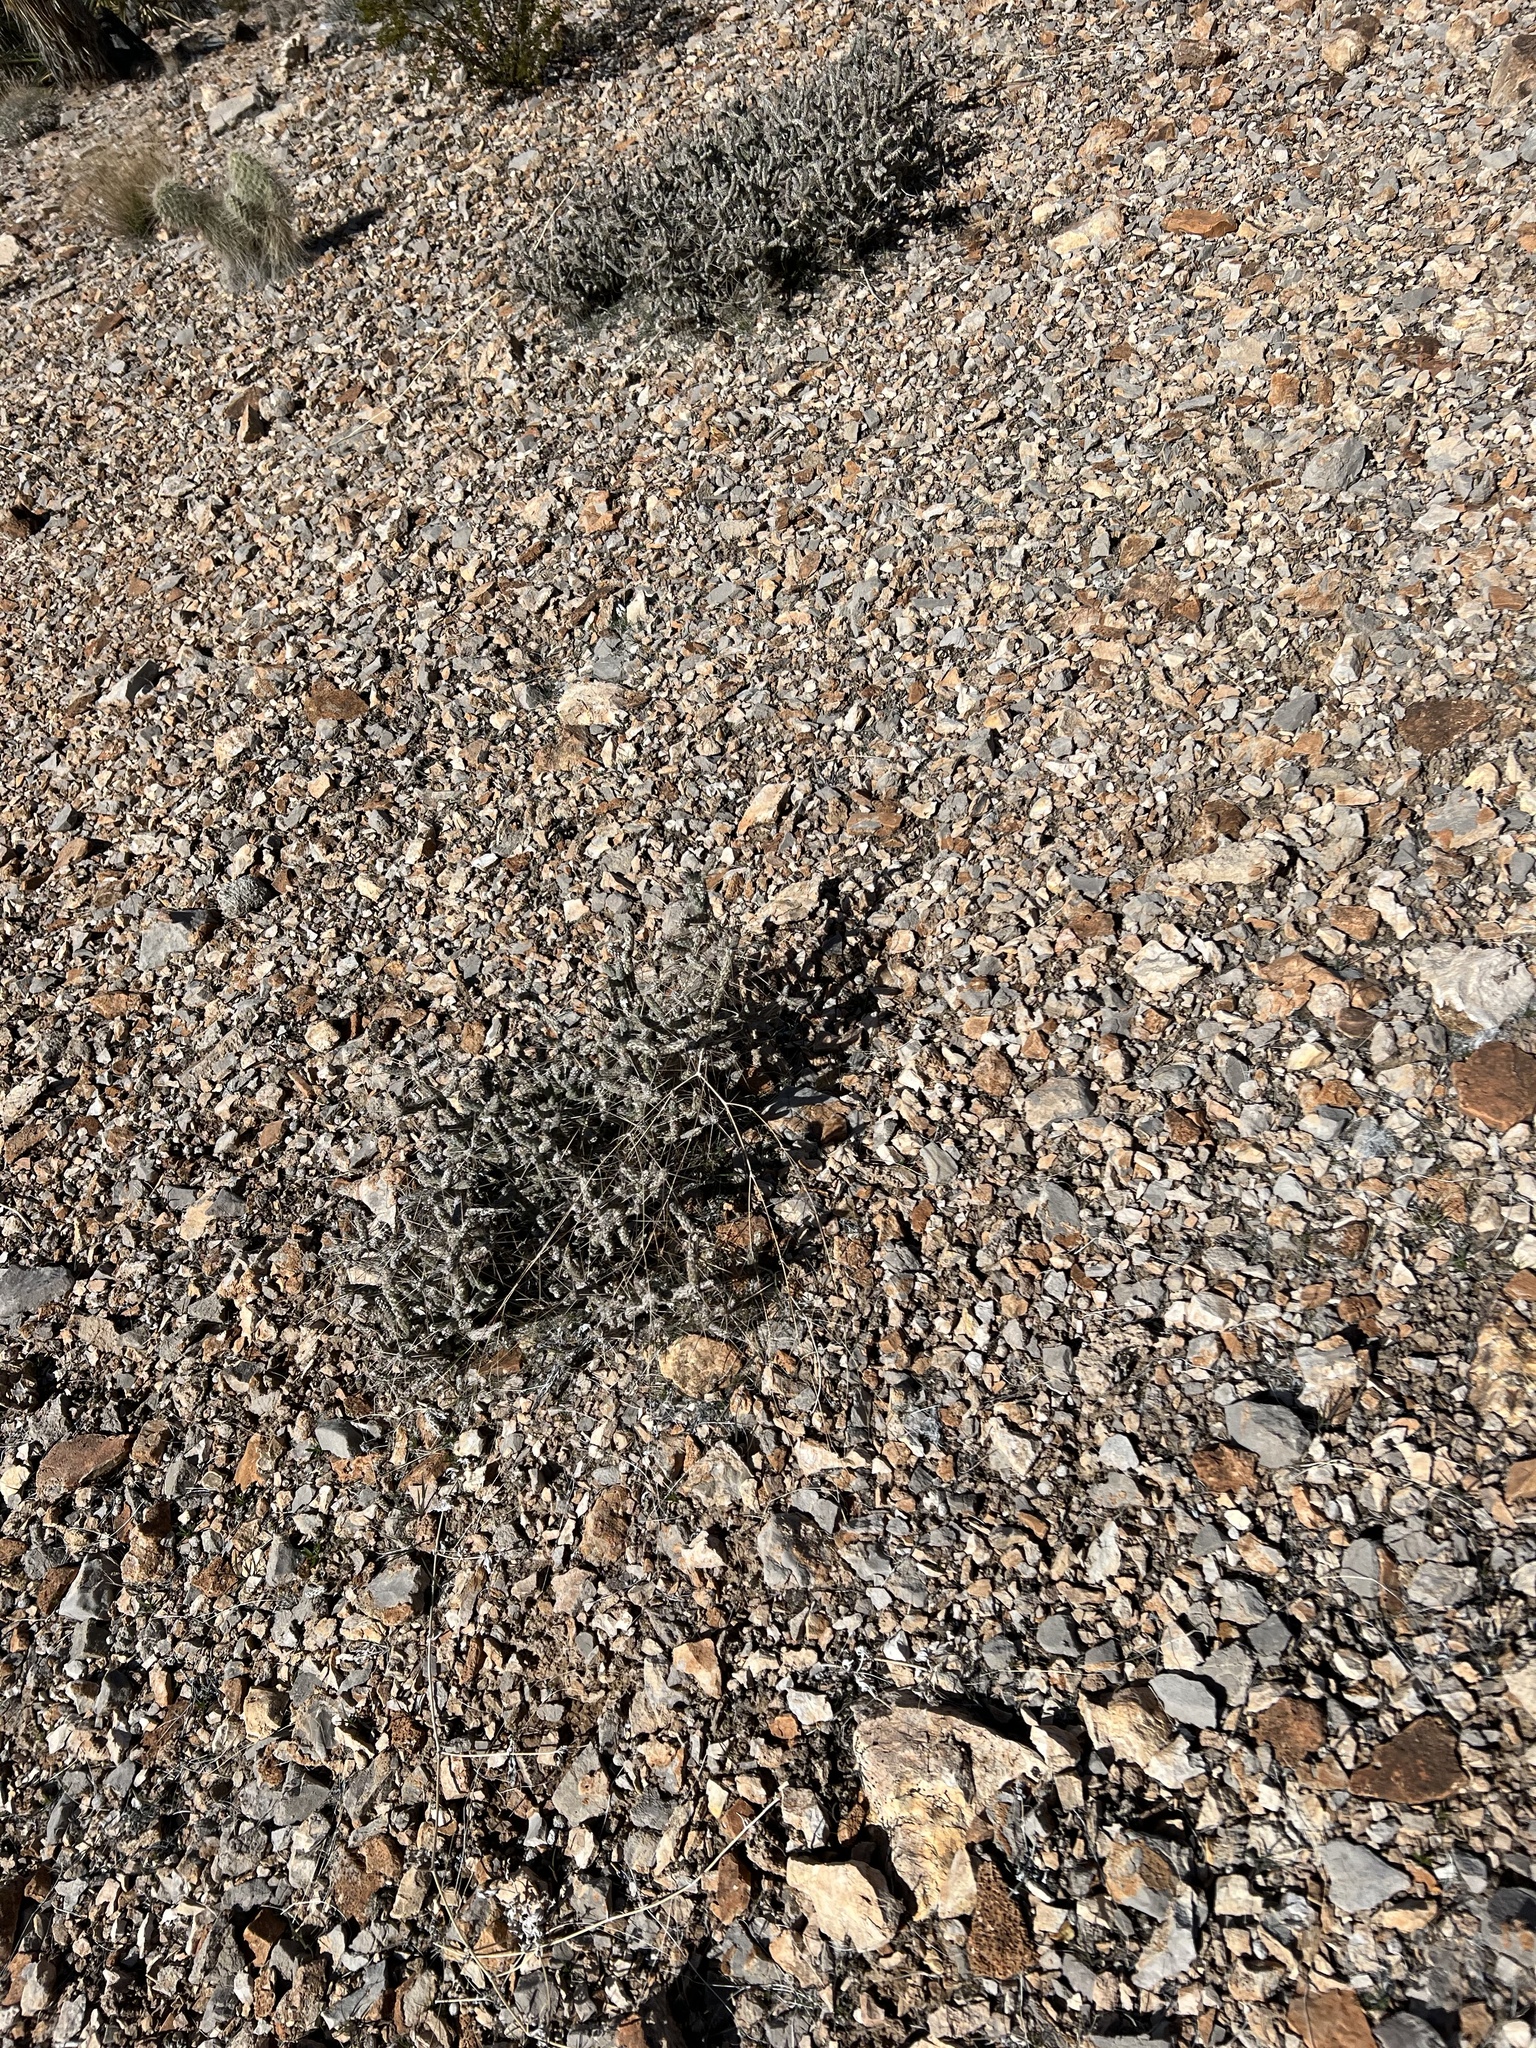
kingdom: Plantae
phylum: Tracheophyta
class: Magnoliopsida
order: Caryophyllales
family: Cactaceae
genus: Cylindropuntia
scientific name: Cylindropuntia ramosissima
